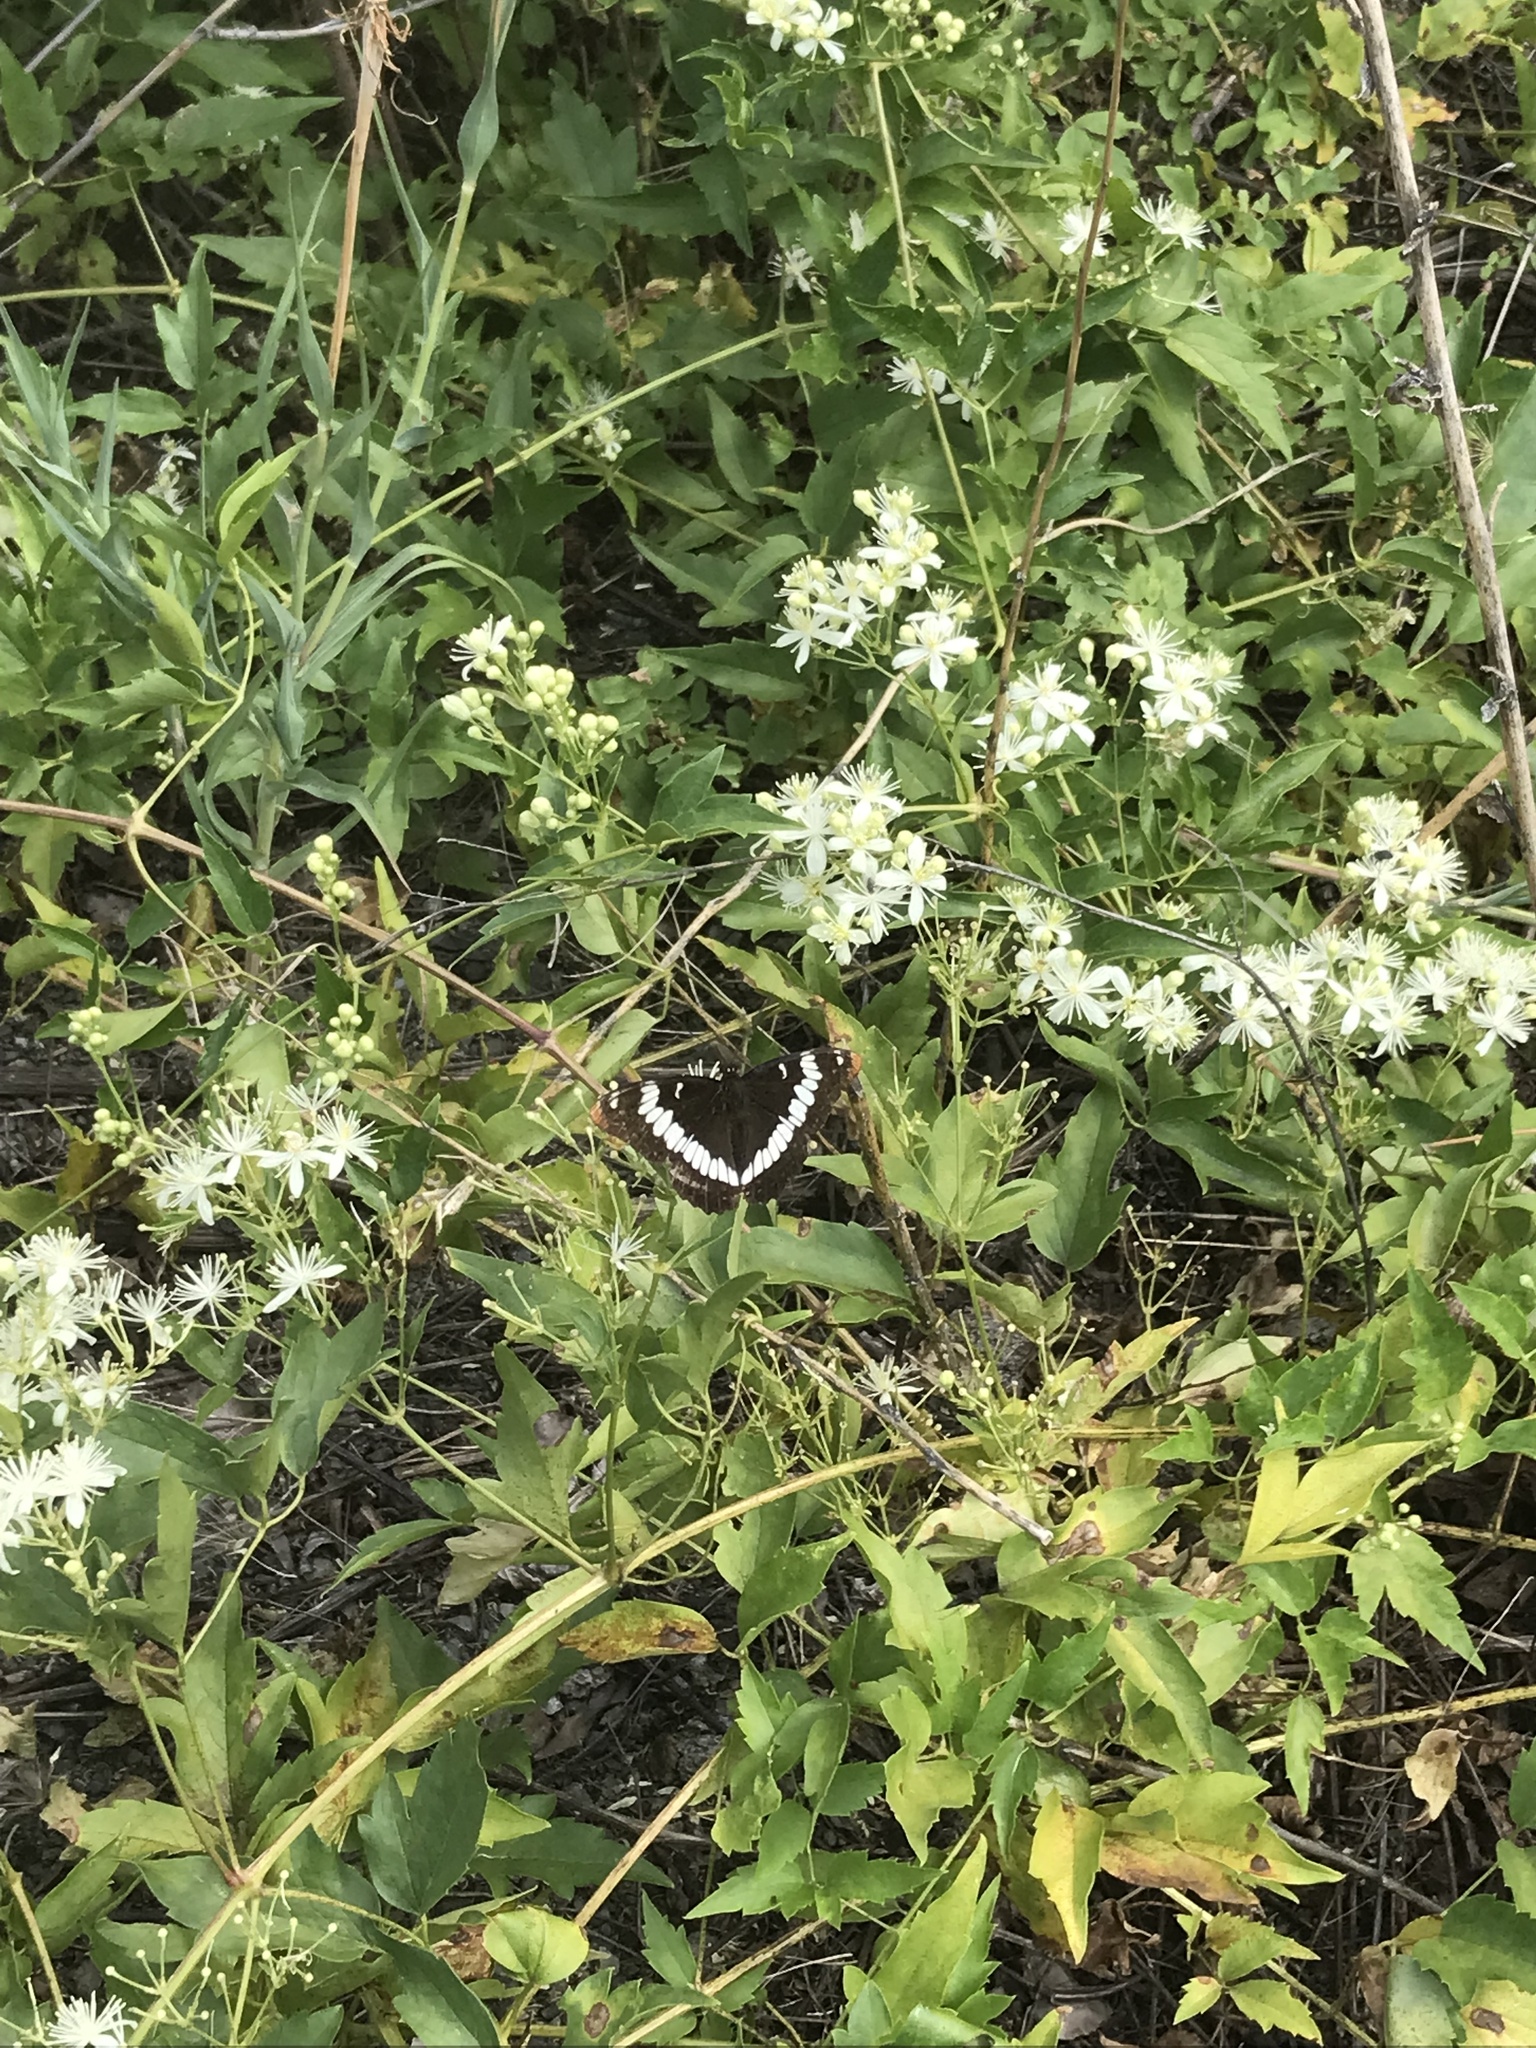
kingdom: Animalia
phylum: Arthropoda
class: Insecta
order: Lepidoptera
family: Nymphalidae
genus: Limenitis
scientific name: Limenitis lorquini
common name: Lorquin's admiral
